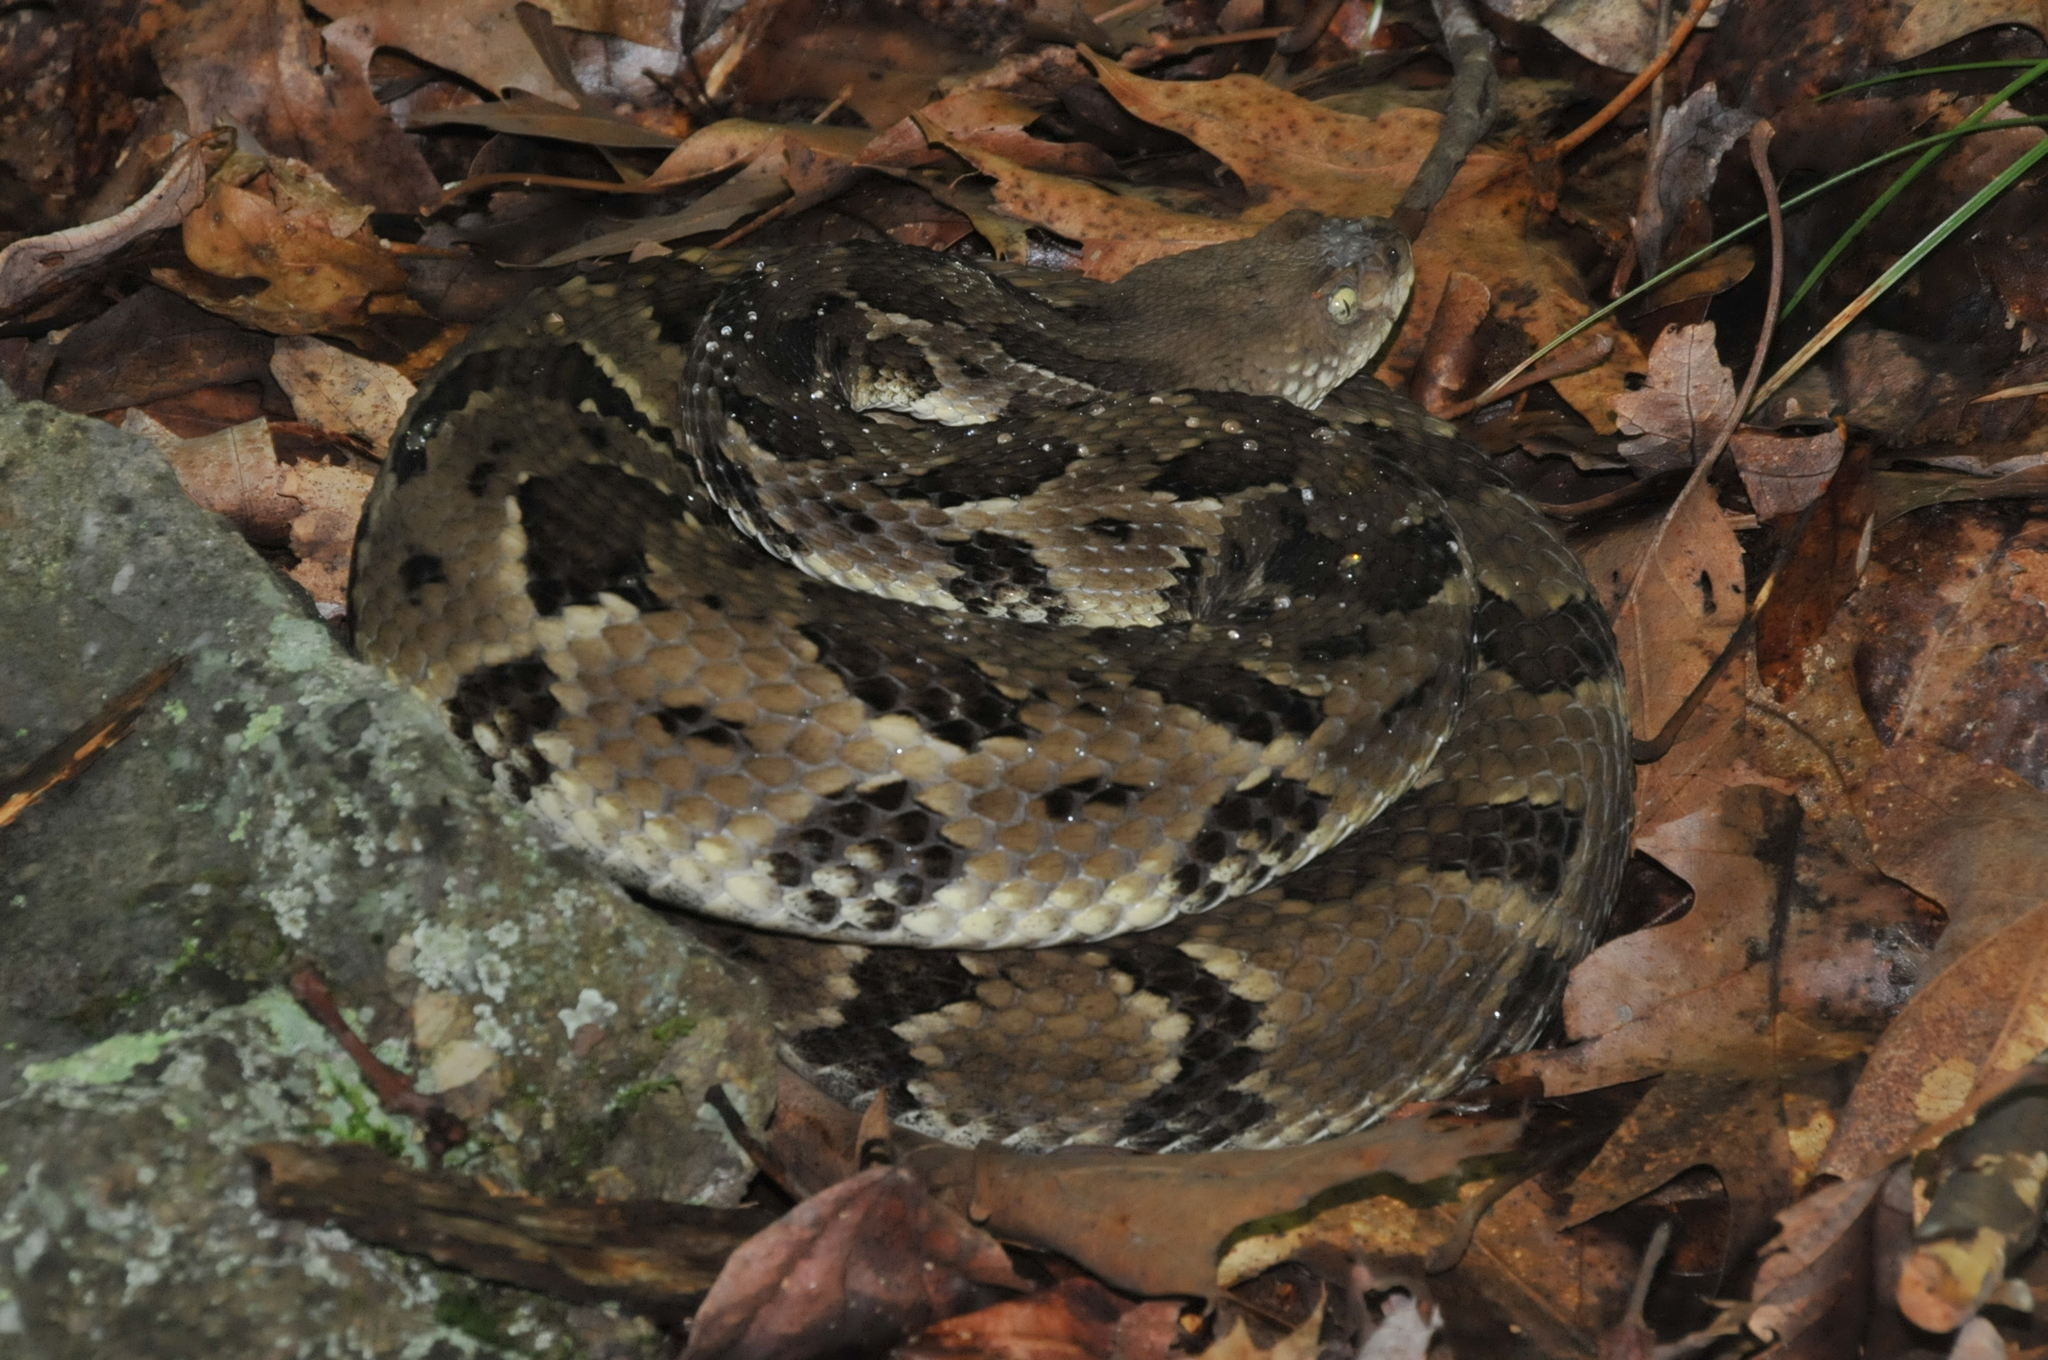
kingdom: Animalia
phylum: Chordata
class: Squamata
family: Viperidae
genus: Crotalus
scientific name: Crotalus horridus
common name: Timber rattlesnake
